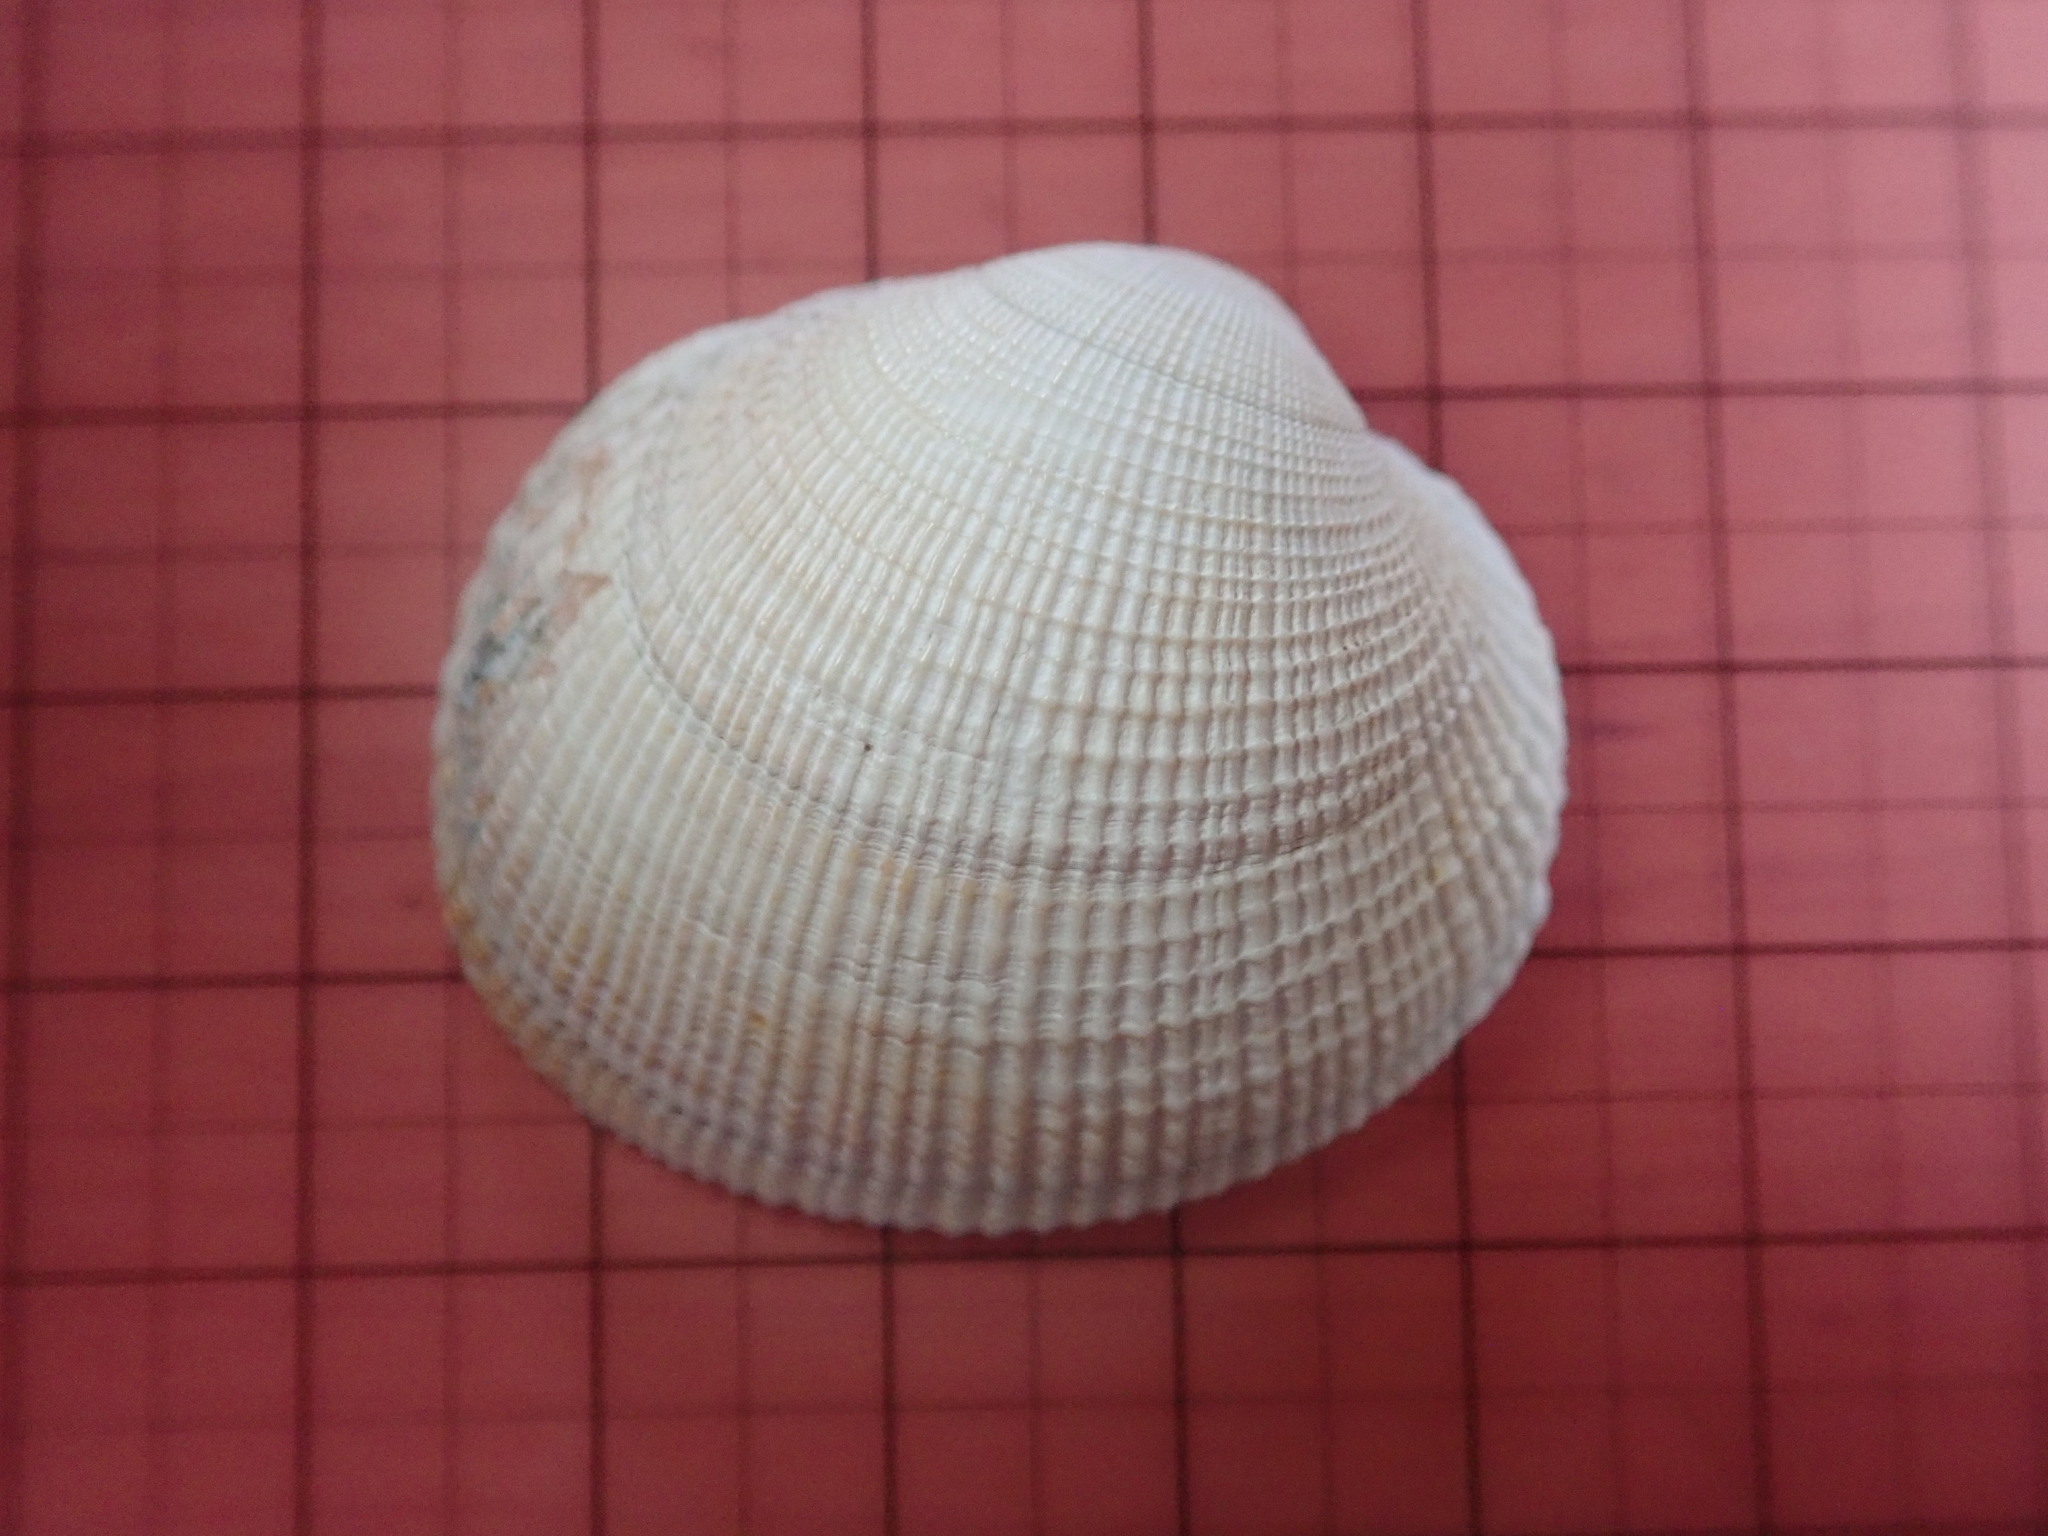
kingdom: Animalia
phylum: Mollusca
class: Bivalvia
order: Venerida
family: Veneridae
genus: Leukoma
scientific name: Leukoma staminea
